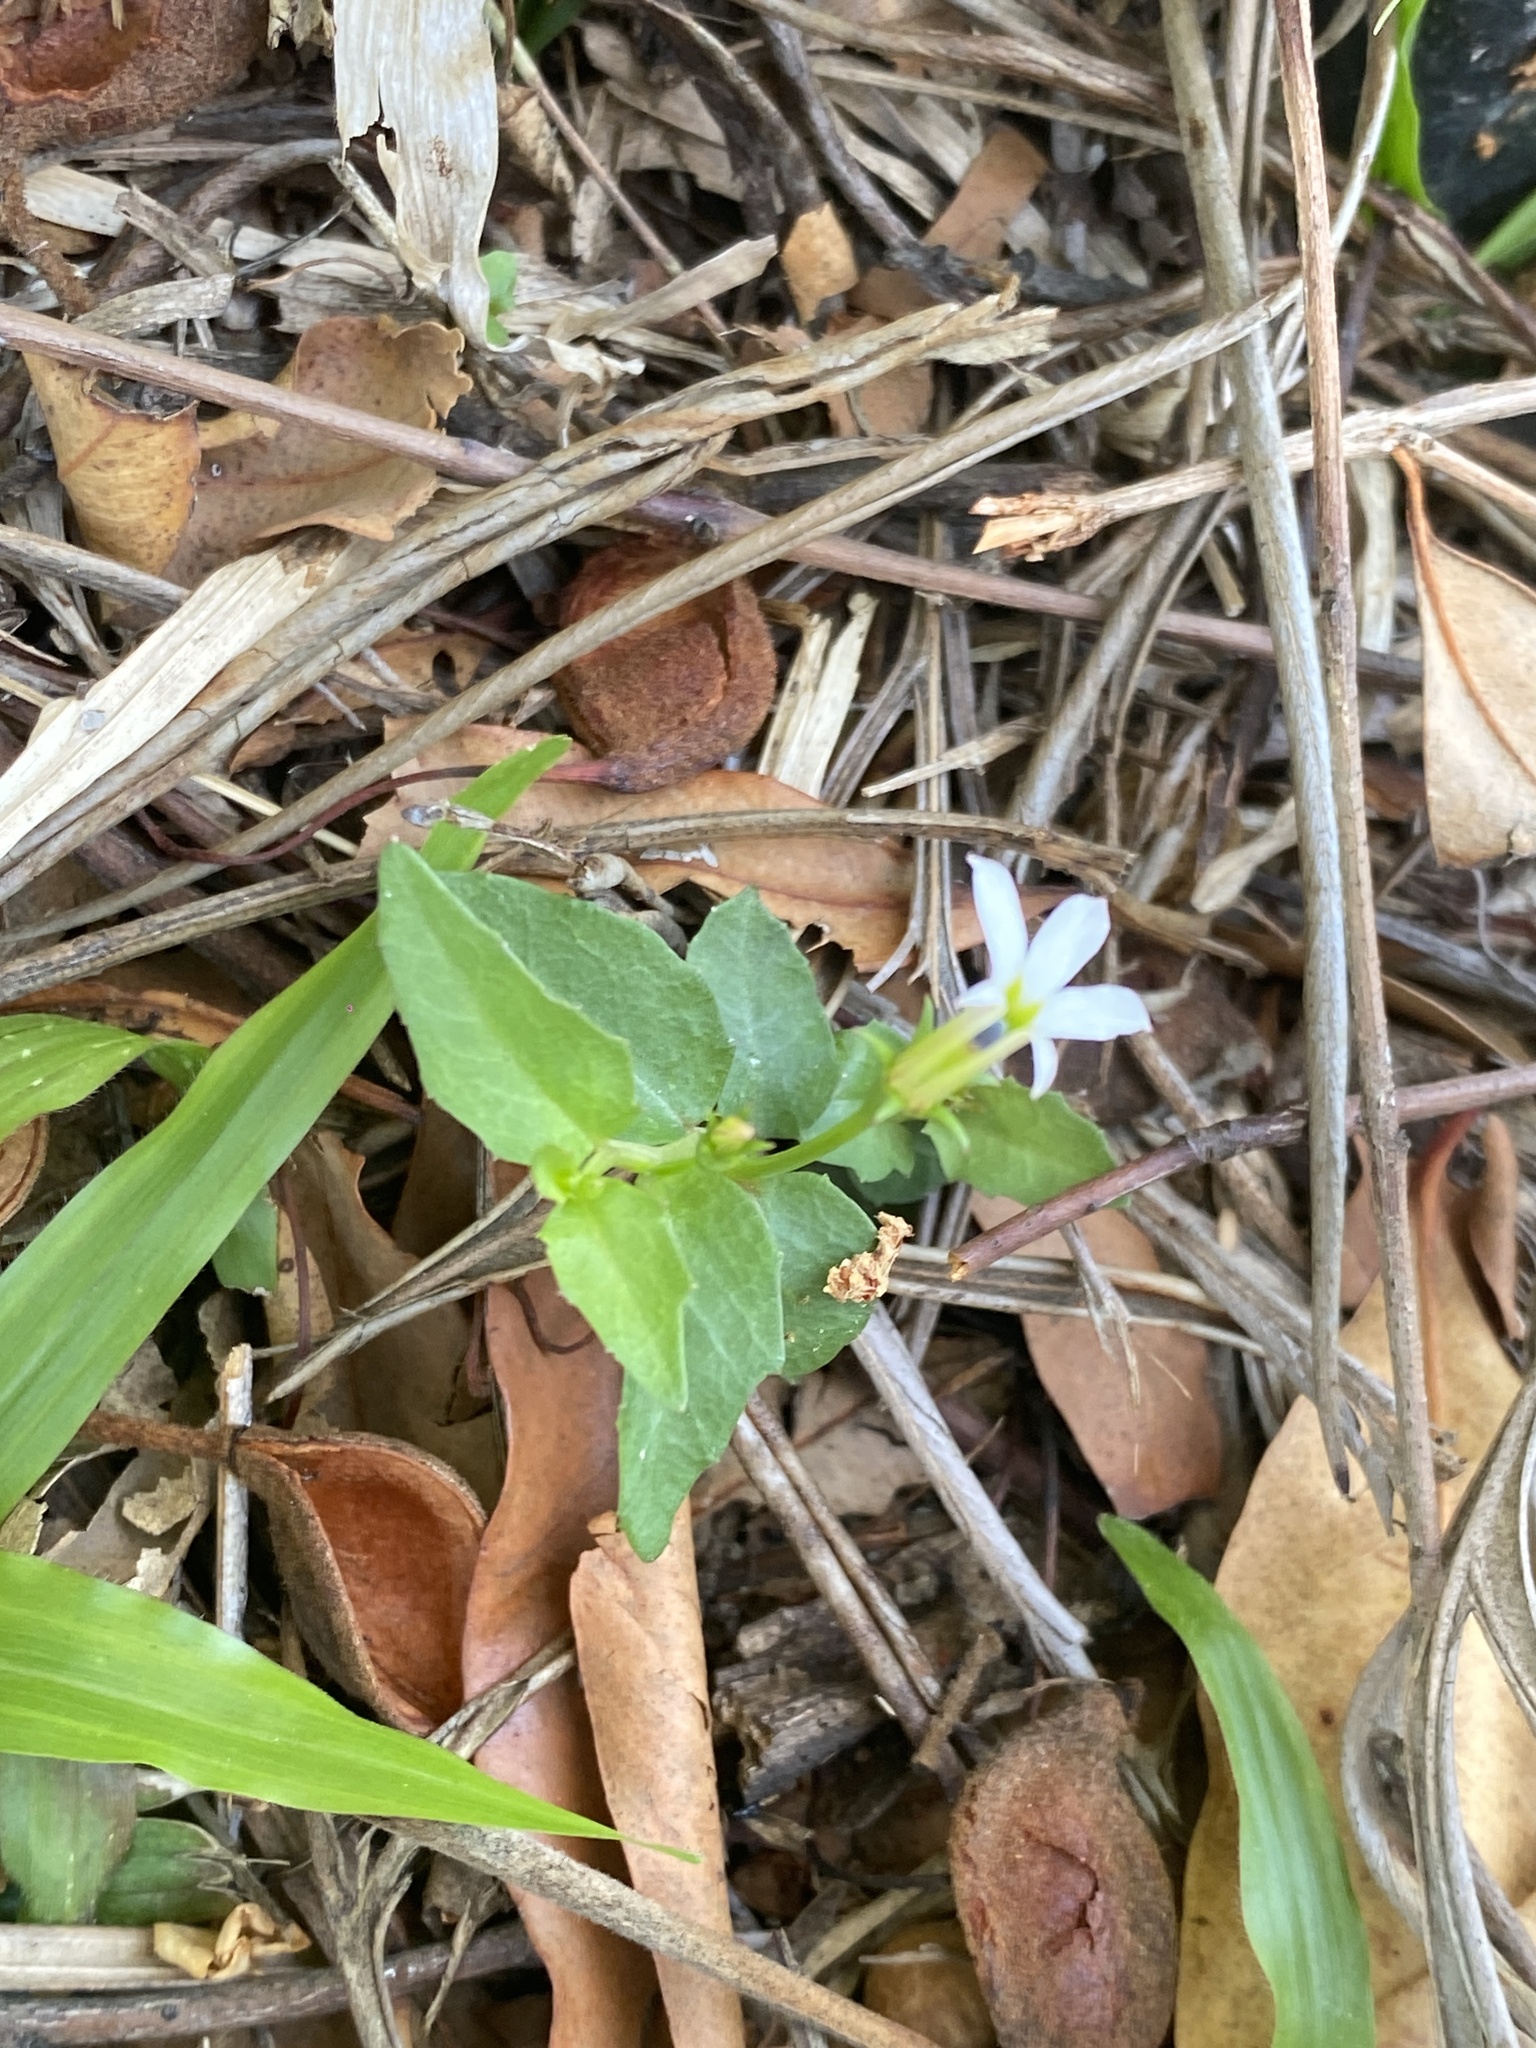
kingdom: Plantae
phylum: Tracheophyta
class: Magnoliopsida
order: Asterales
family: Campanulaceae
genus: Lobelia
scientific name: Lobelia purpurascens
